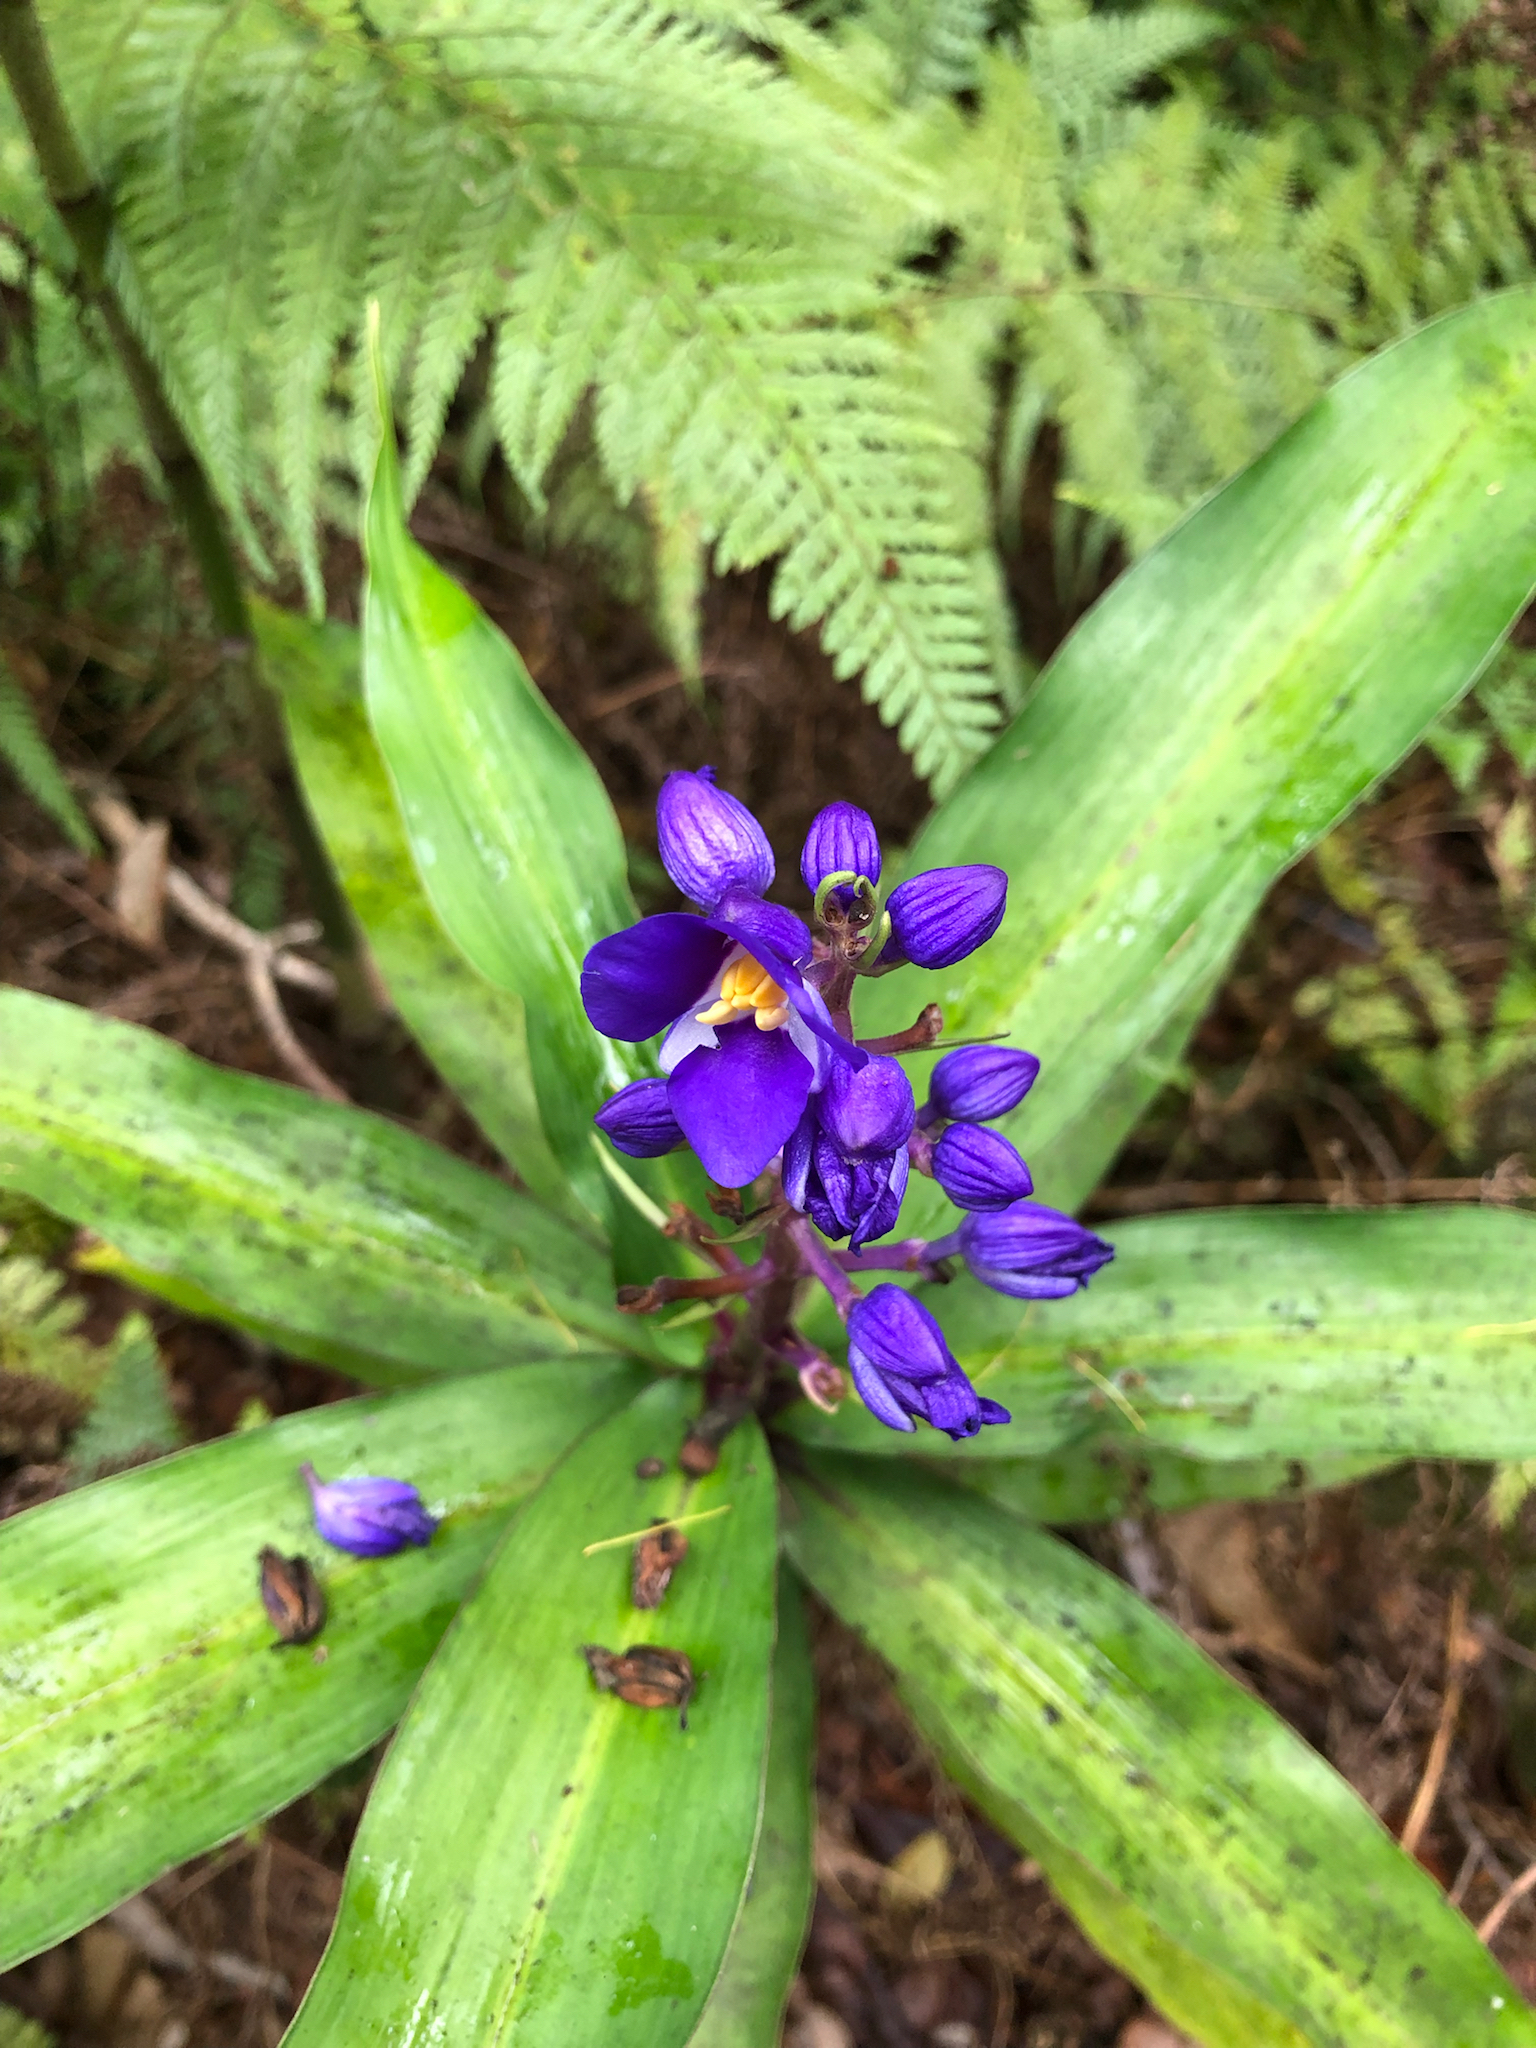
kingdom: Plantae
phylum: Tracheophyta
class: Liliopsida
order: Commelinales
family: Commelinaceae
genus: Dichorisandra
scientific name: Dichorisandra thyrsiflora
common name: Blue-ginger
